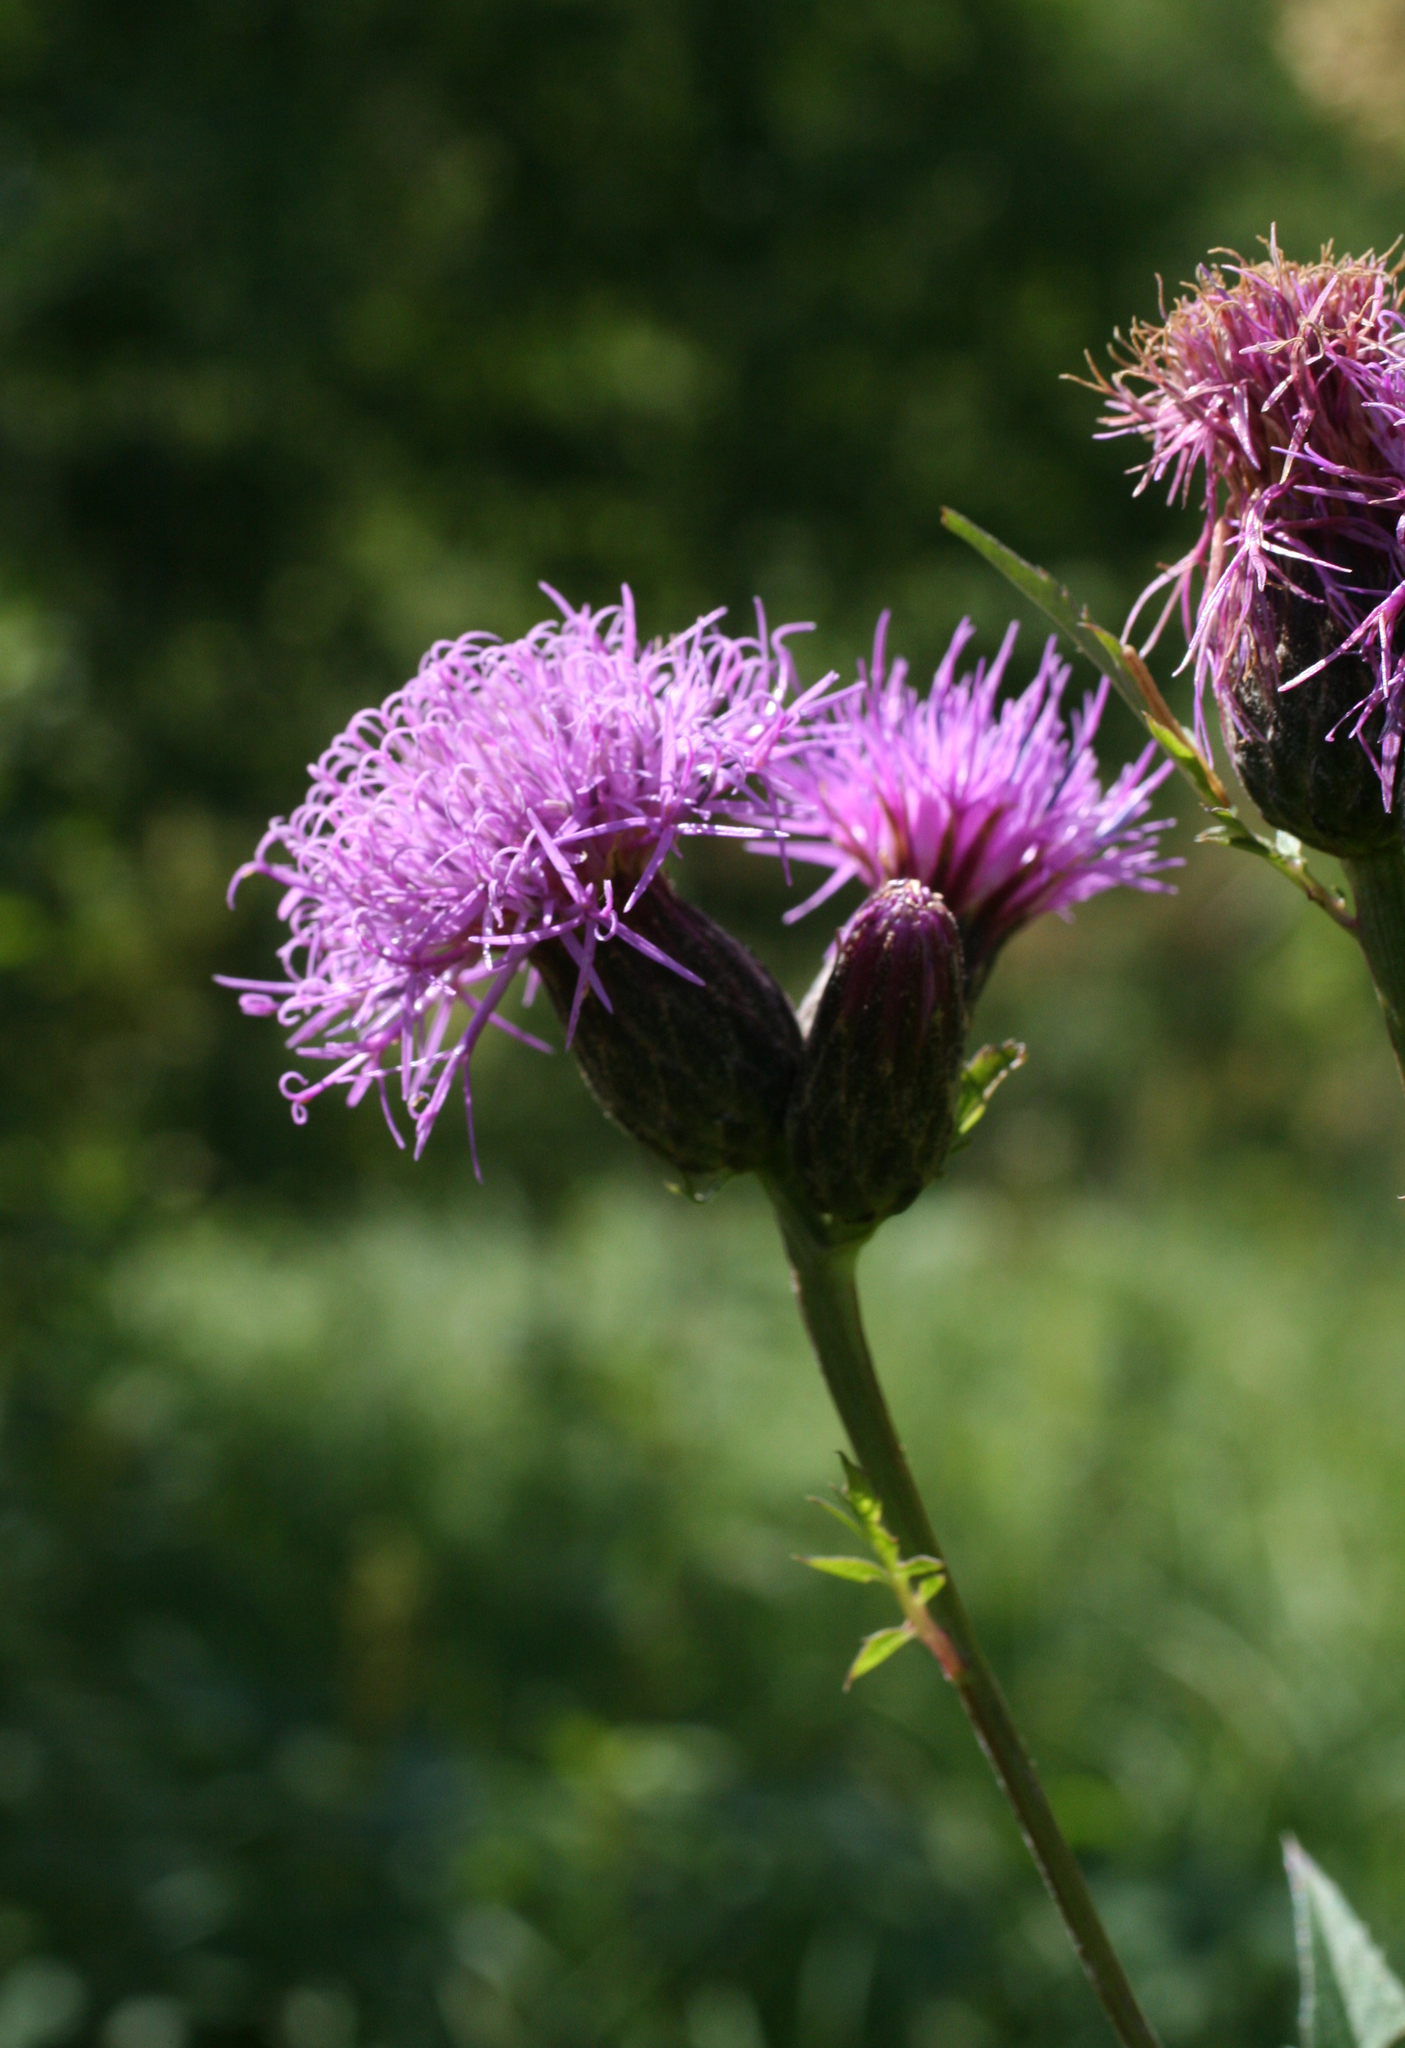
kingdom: Plantae
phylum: Tracheophyta
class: Magnoliopsida
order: Asterales
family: Asteraceae
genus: Serratula
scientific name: Serratula coronata
